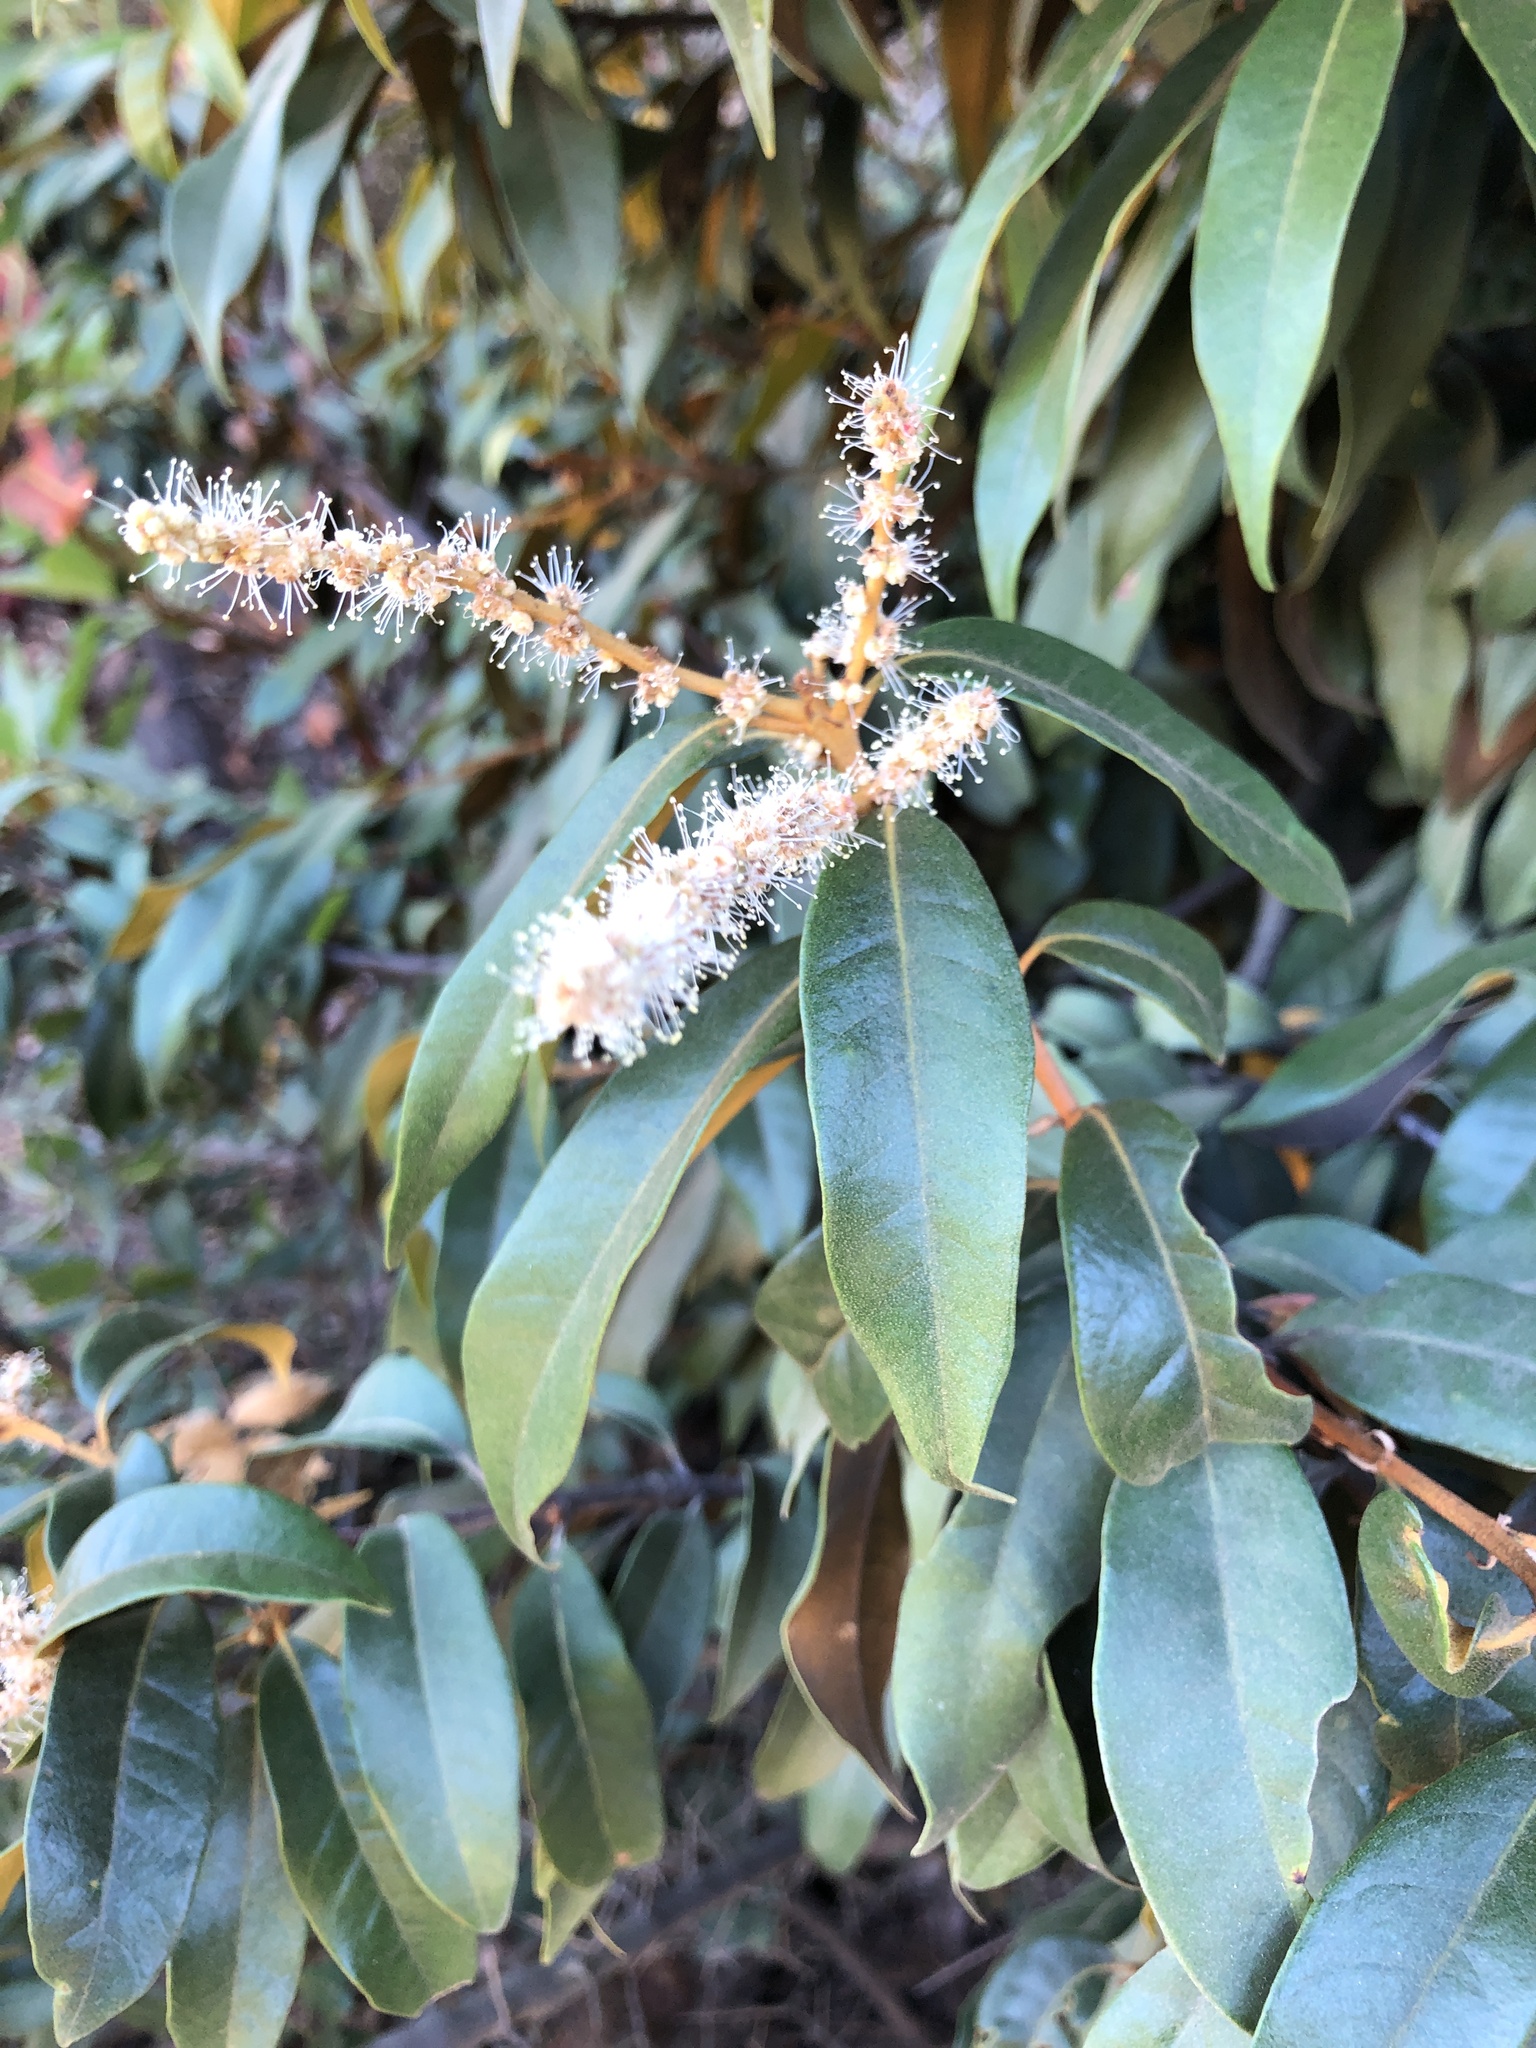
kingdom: Plantae
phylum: Tracheophyta
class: Magnoliopsida
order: Fagales
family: Fagaceae
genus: Chrysolepis
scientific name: Chrysolepis chrysophylla
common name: Giant chinquapin
